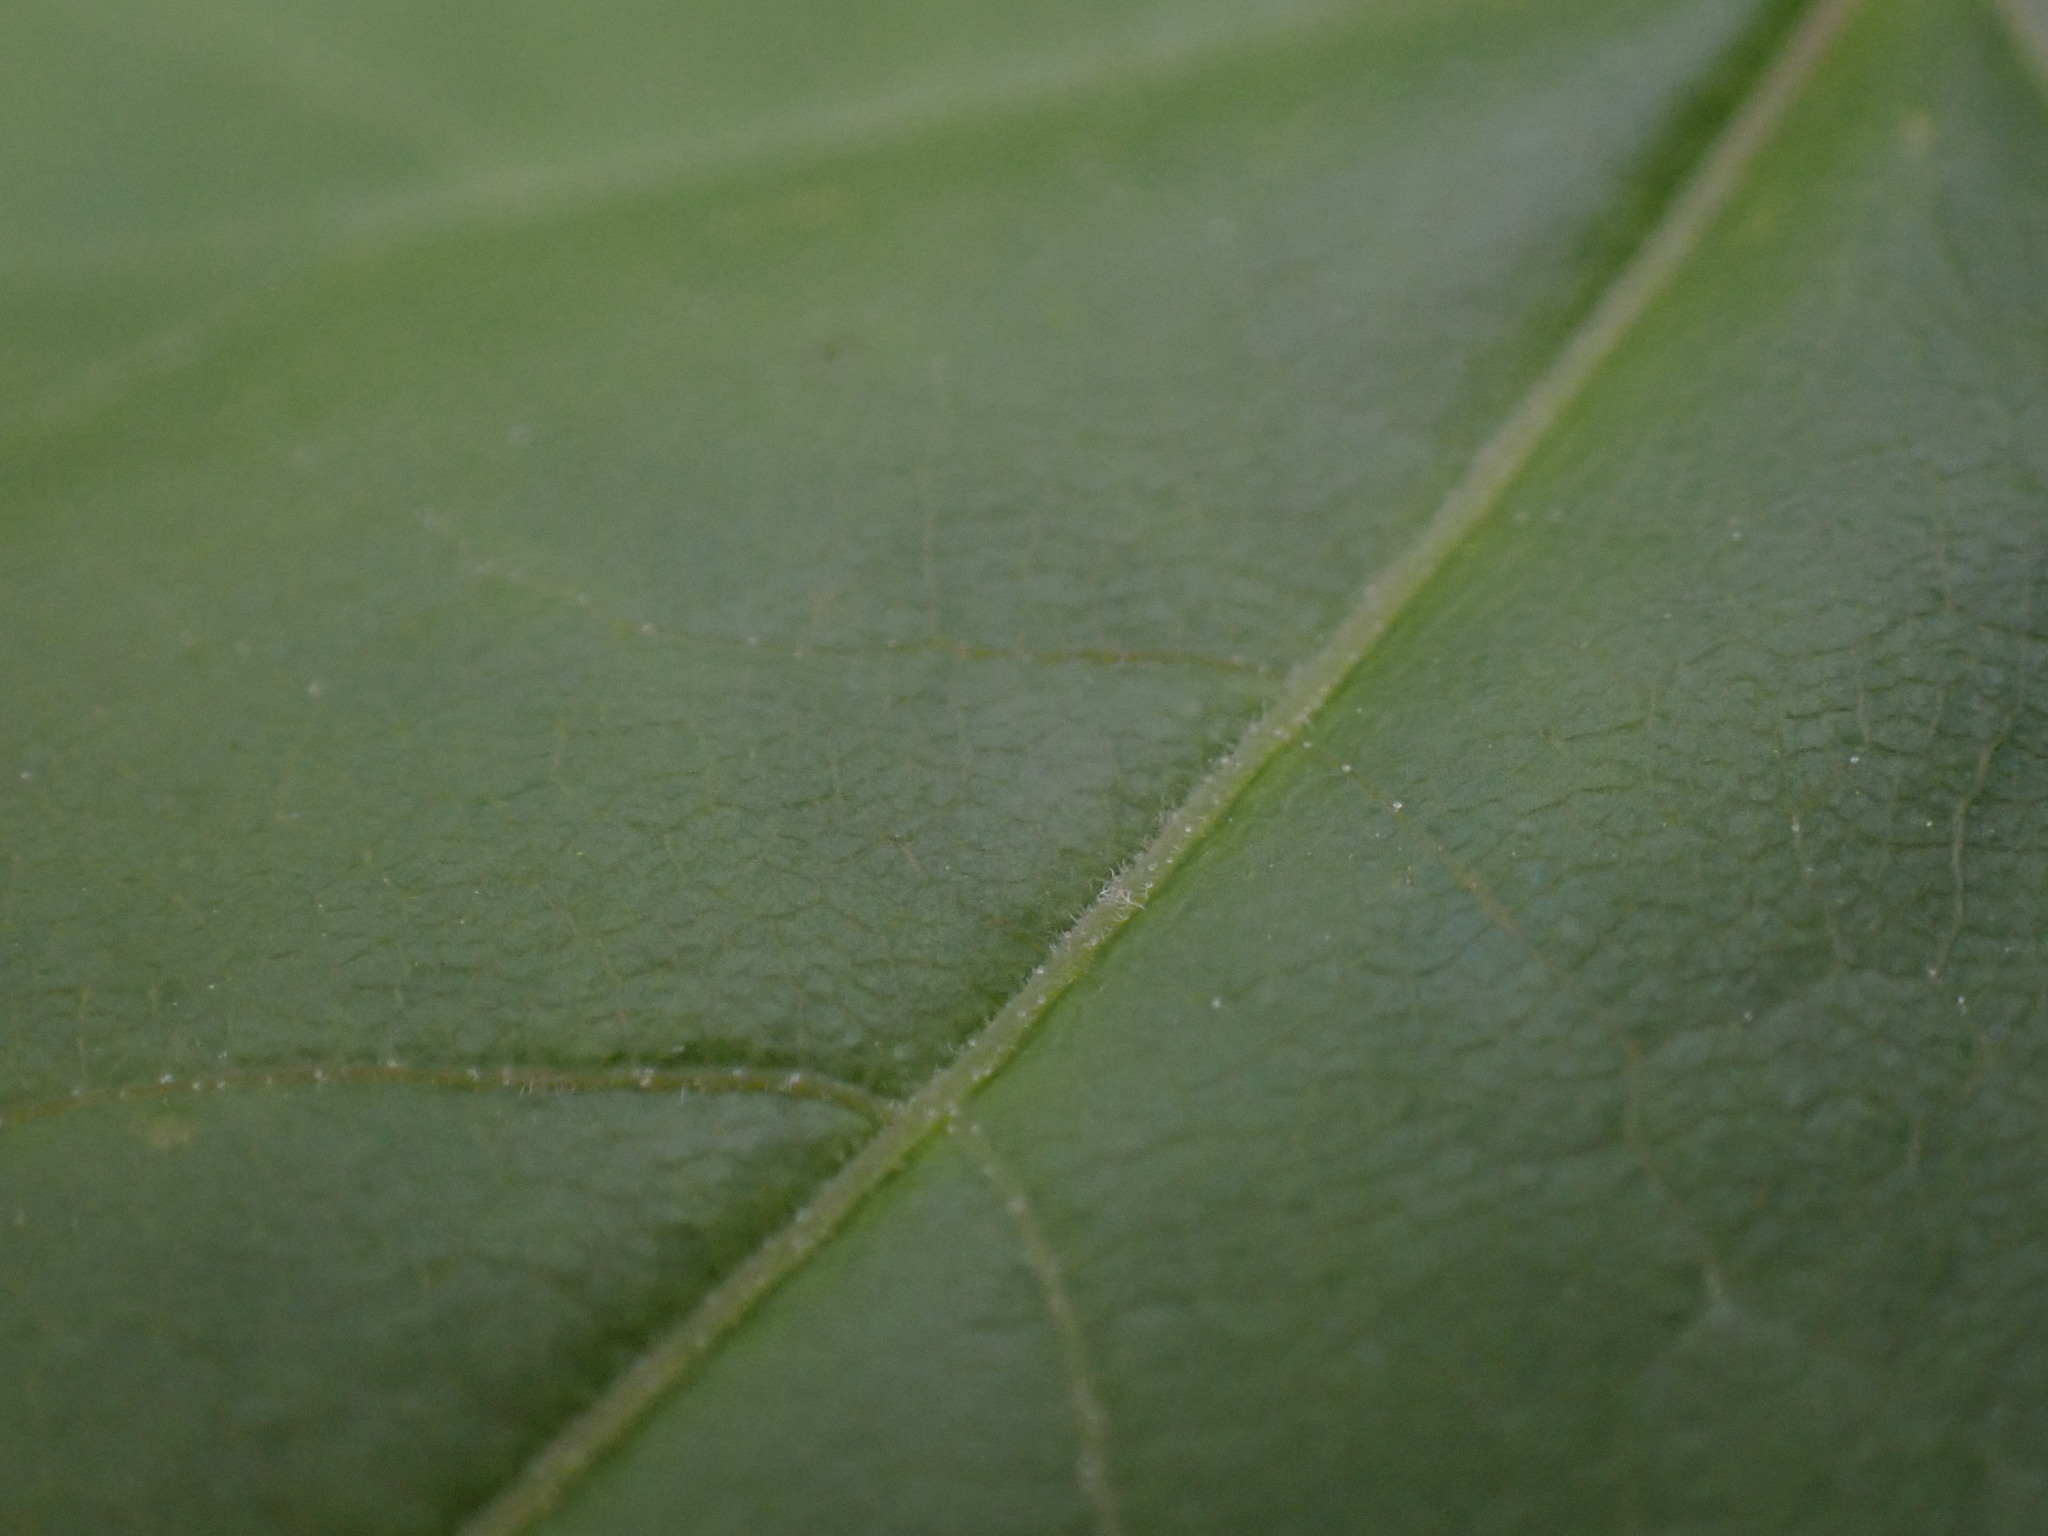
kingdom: Plantae
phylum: Tracheophyta
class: Magnoliopsida
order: Sapindales
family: Sapindaceae
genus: Acer
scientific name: Acer campestre
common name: Field maple
